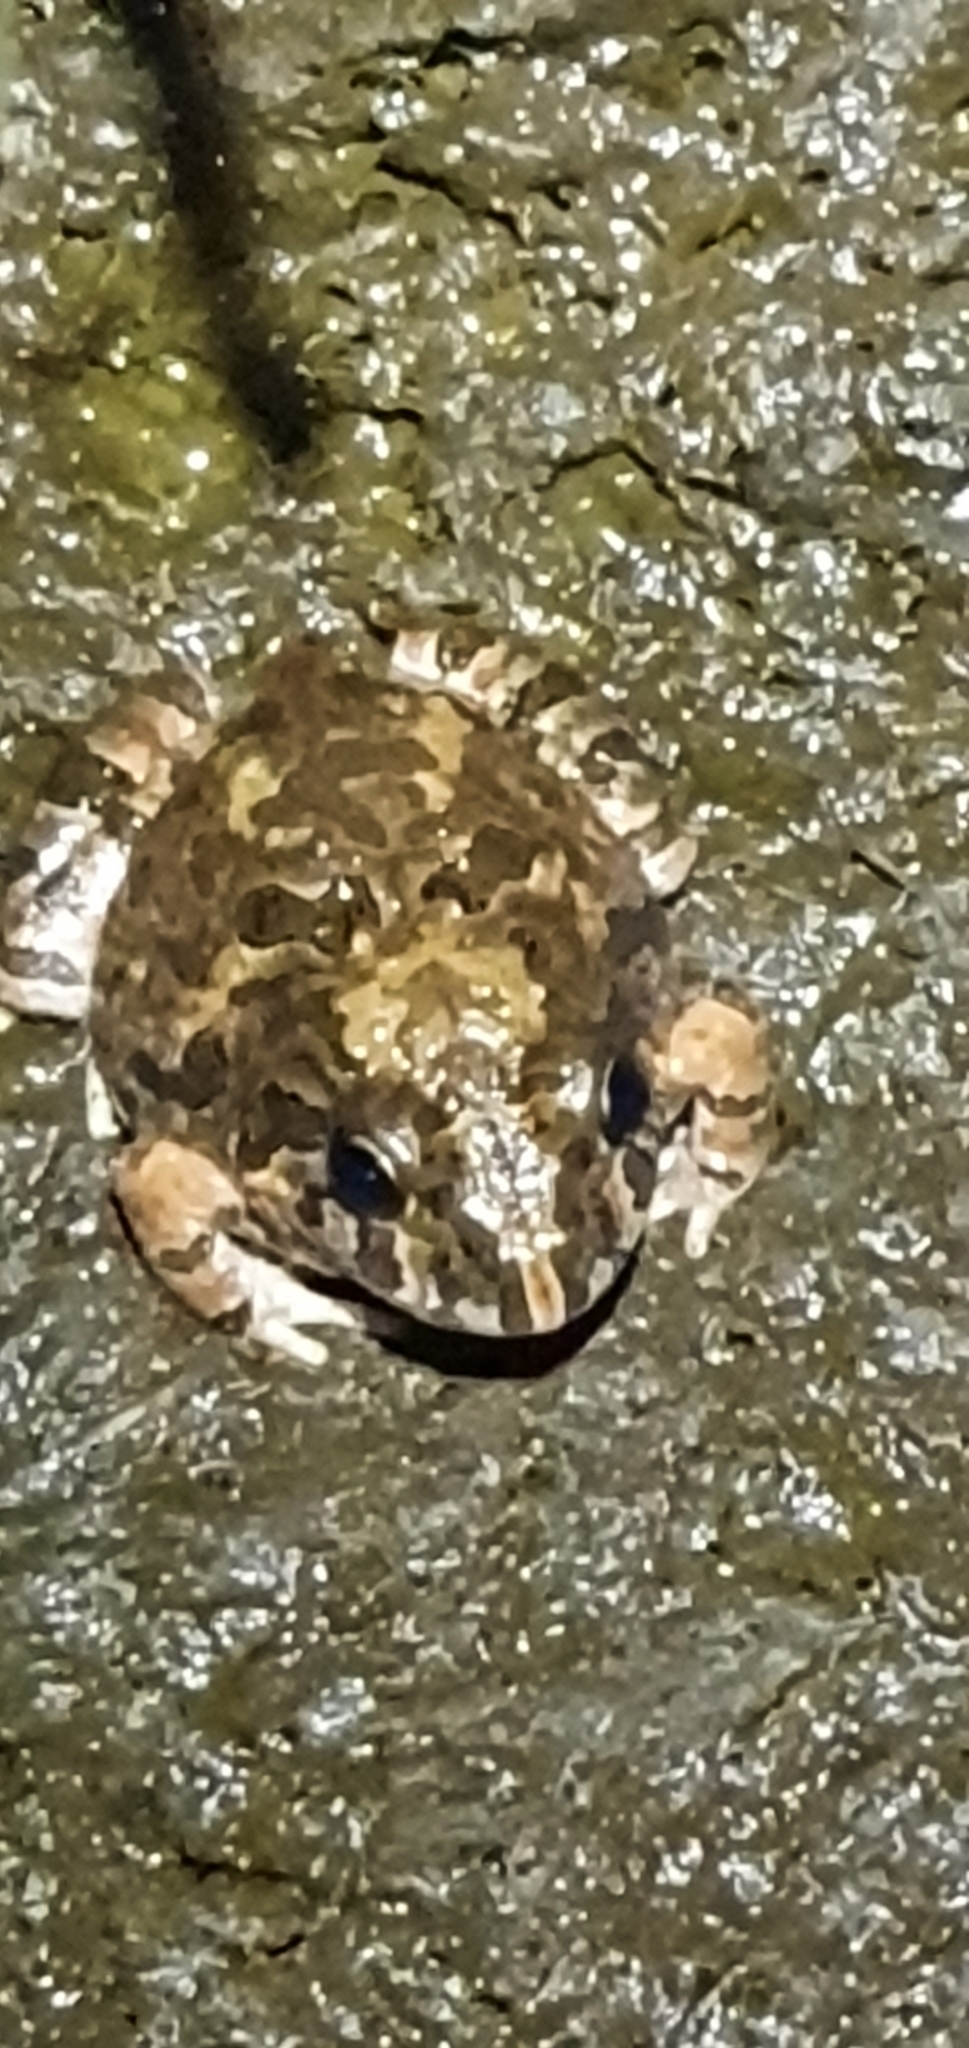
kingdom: Animalia
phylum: Chordata
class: Amphibia
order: Anura
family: Limnodynastidae
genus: Platyplectrum
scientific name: Platyplectrum ornatum
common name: Ornate burrowing frog
